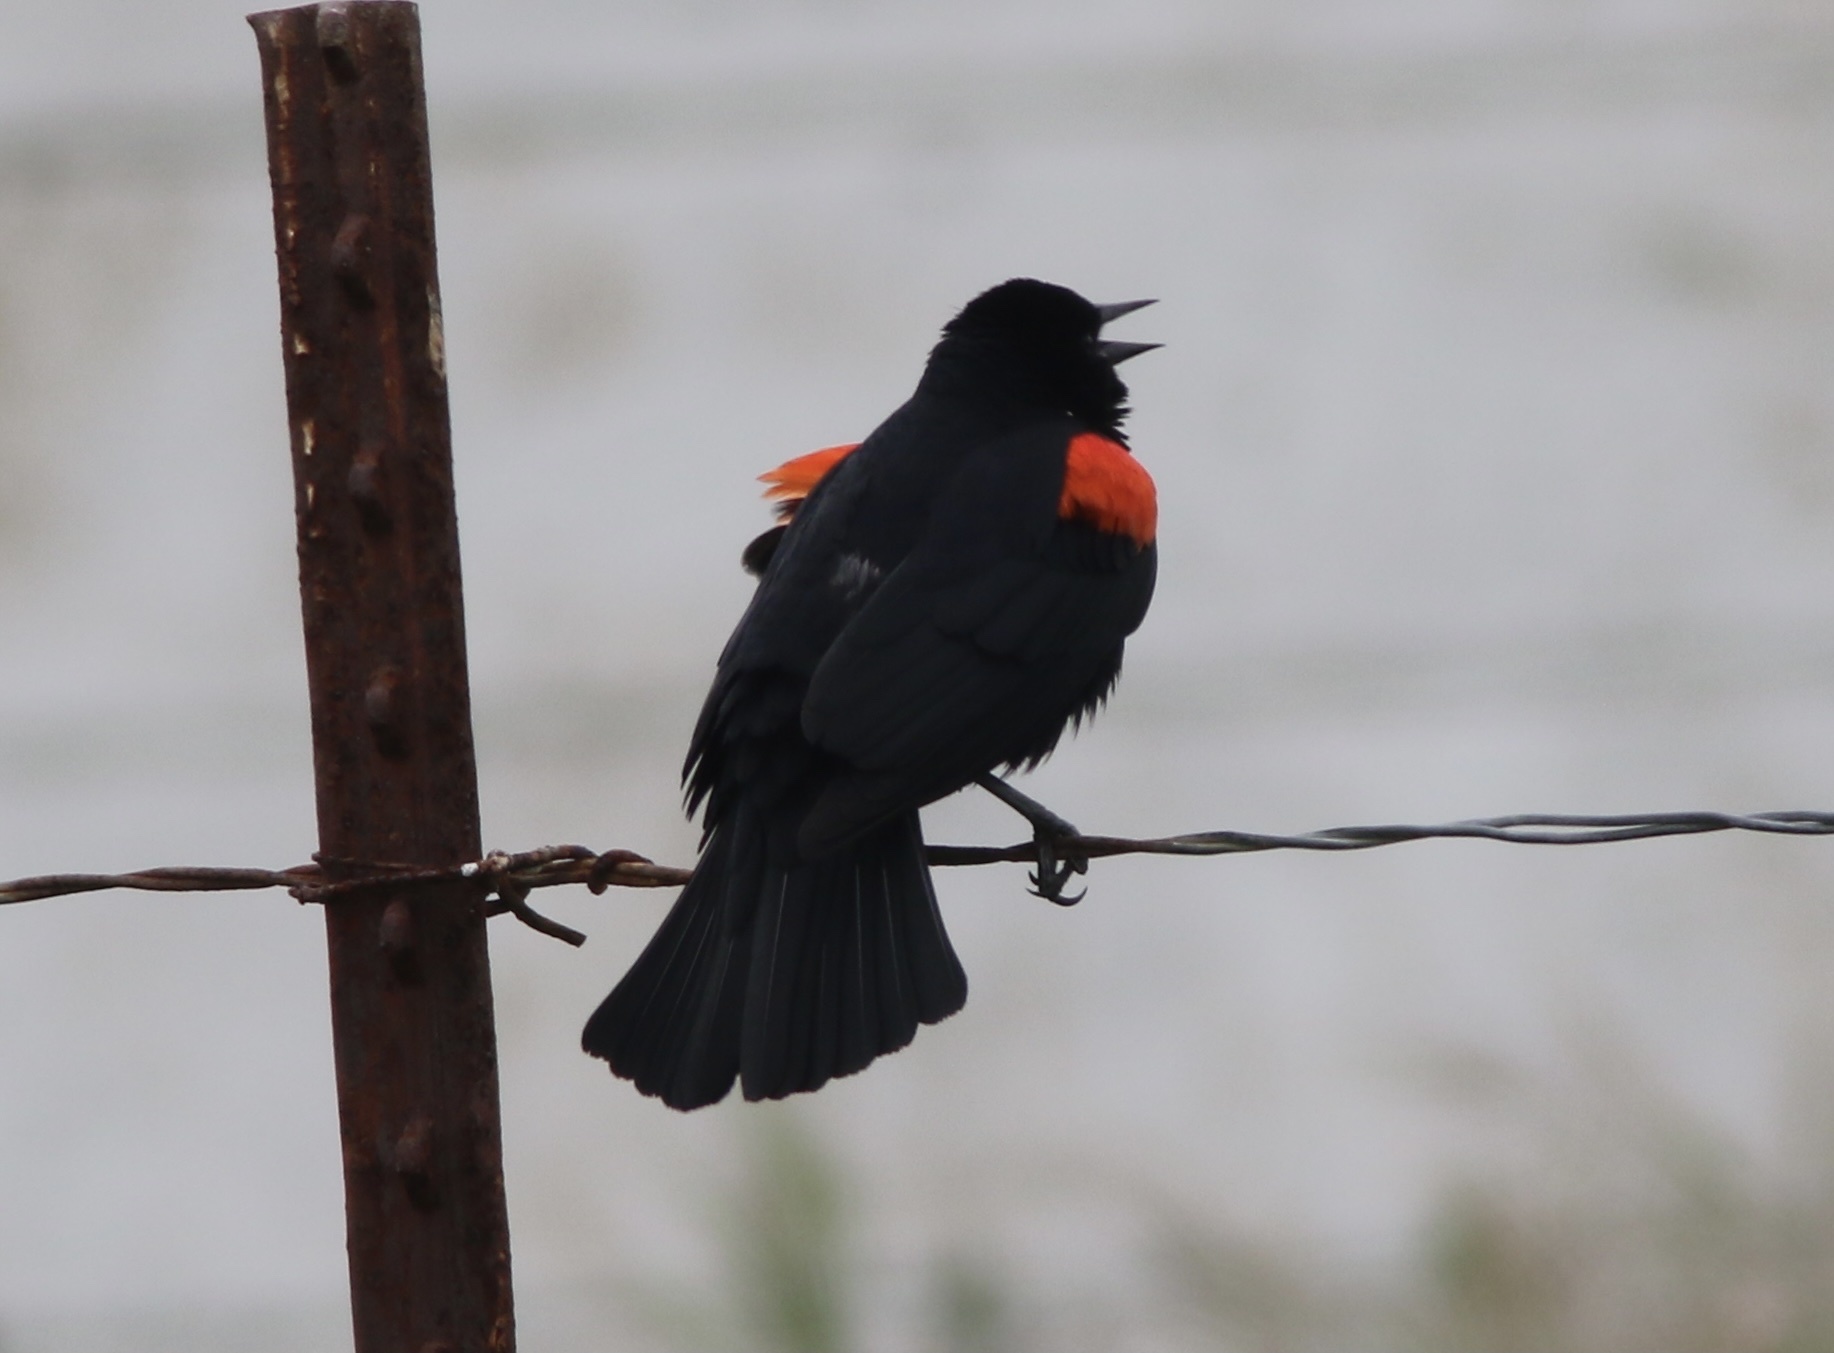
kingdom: Animalia
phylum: Chordata
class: Aves
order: Passeriformes
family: Icteridae
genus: Agelaius
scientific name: Agelaius phoeniceus
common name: Red-winged blackbird
